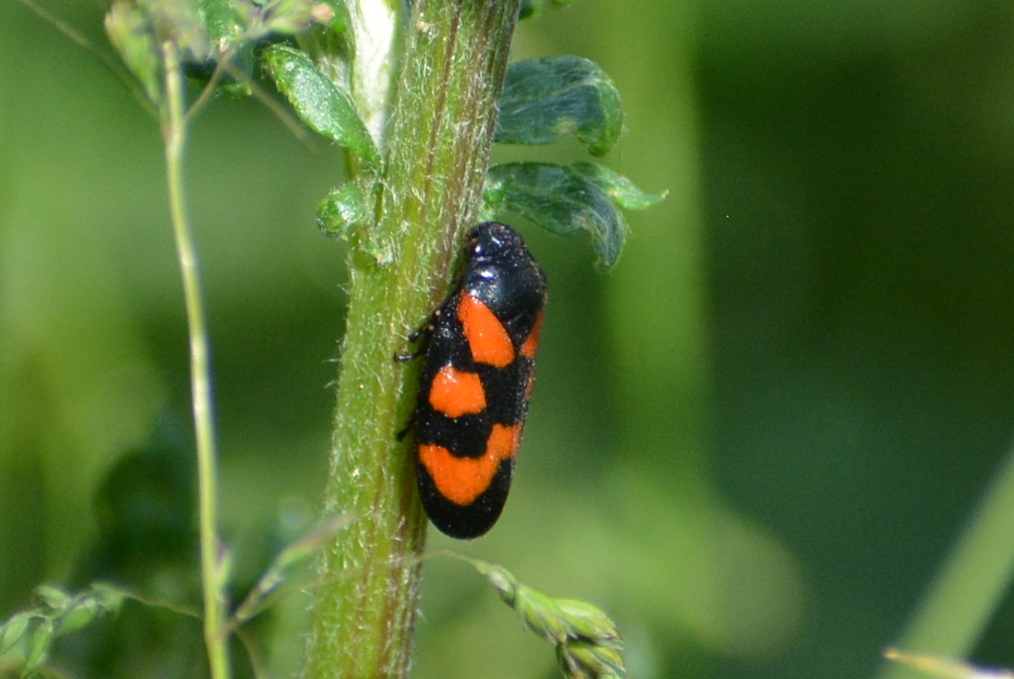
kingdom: Animalia
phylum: Arthropoda
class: Insecta
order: Hemiptera
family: Cercopidae
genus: Cercopis
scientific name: Cercopis vulnerata
